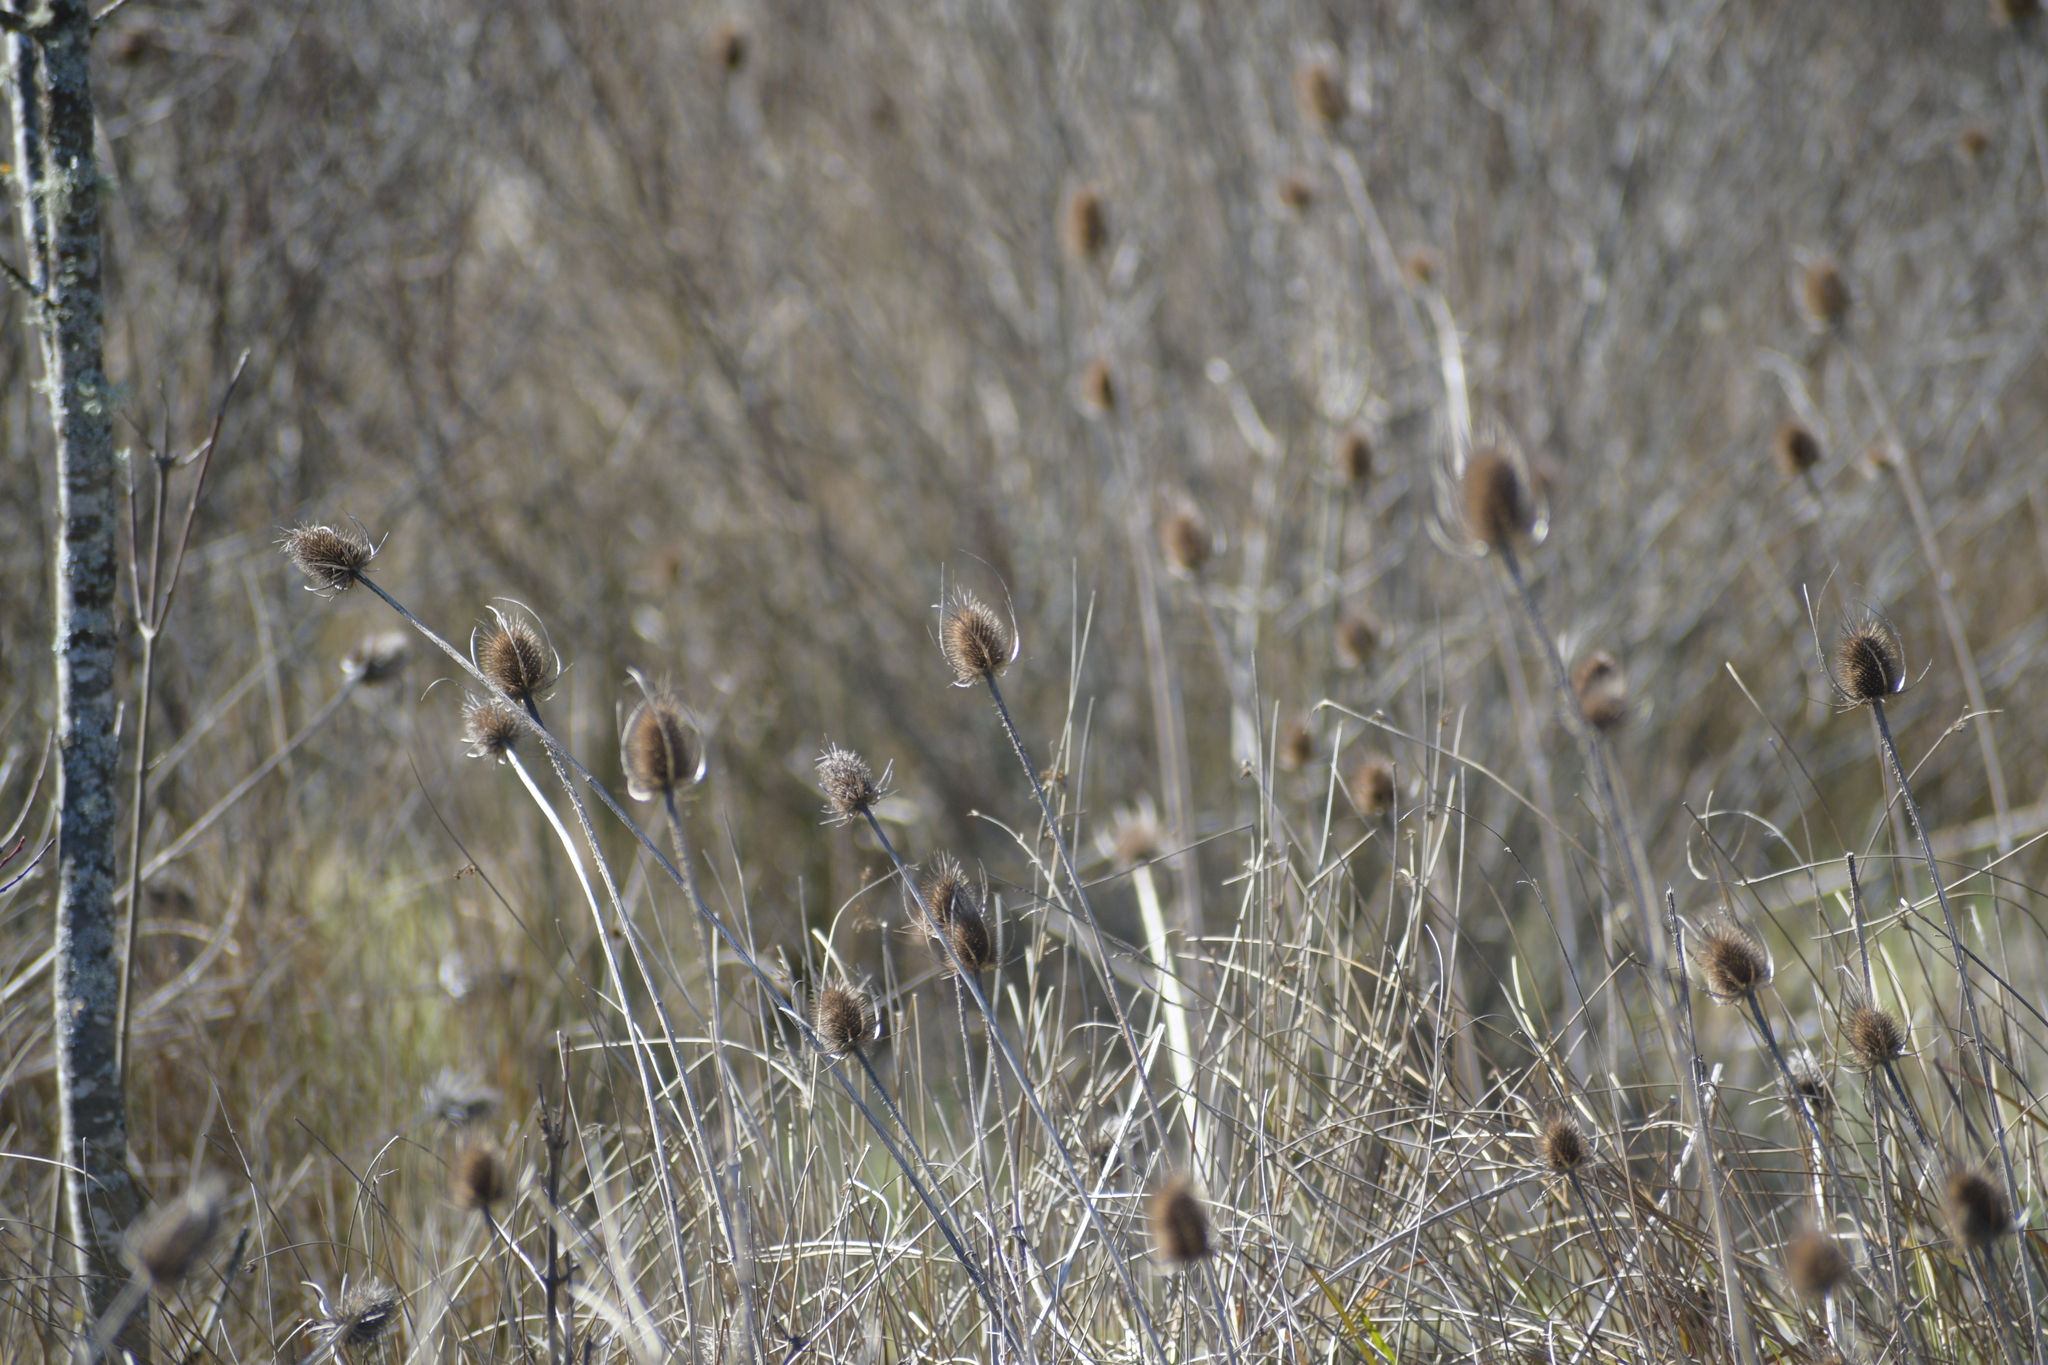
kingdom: Plantae
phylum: Tracheophyta
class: Magnoliopsida
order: Dipsacales
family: Caprifoliaceae
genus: Dipsacus
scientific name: Dipsacus fullonum
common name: Teasel
